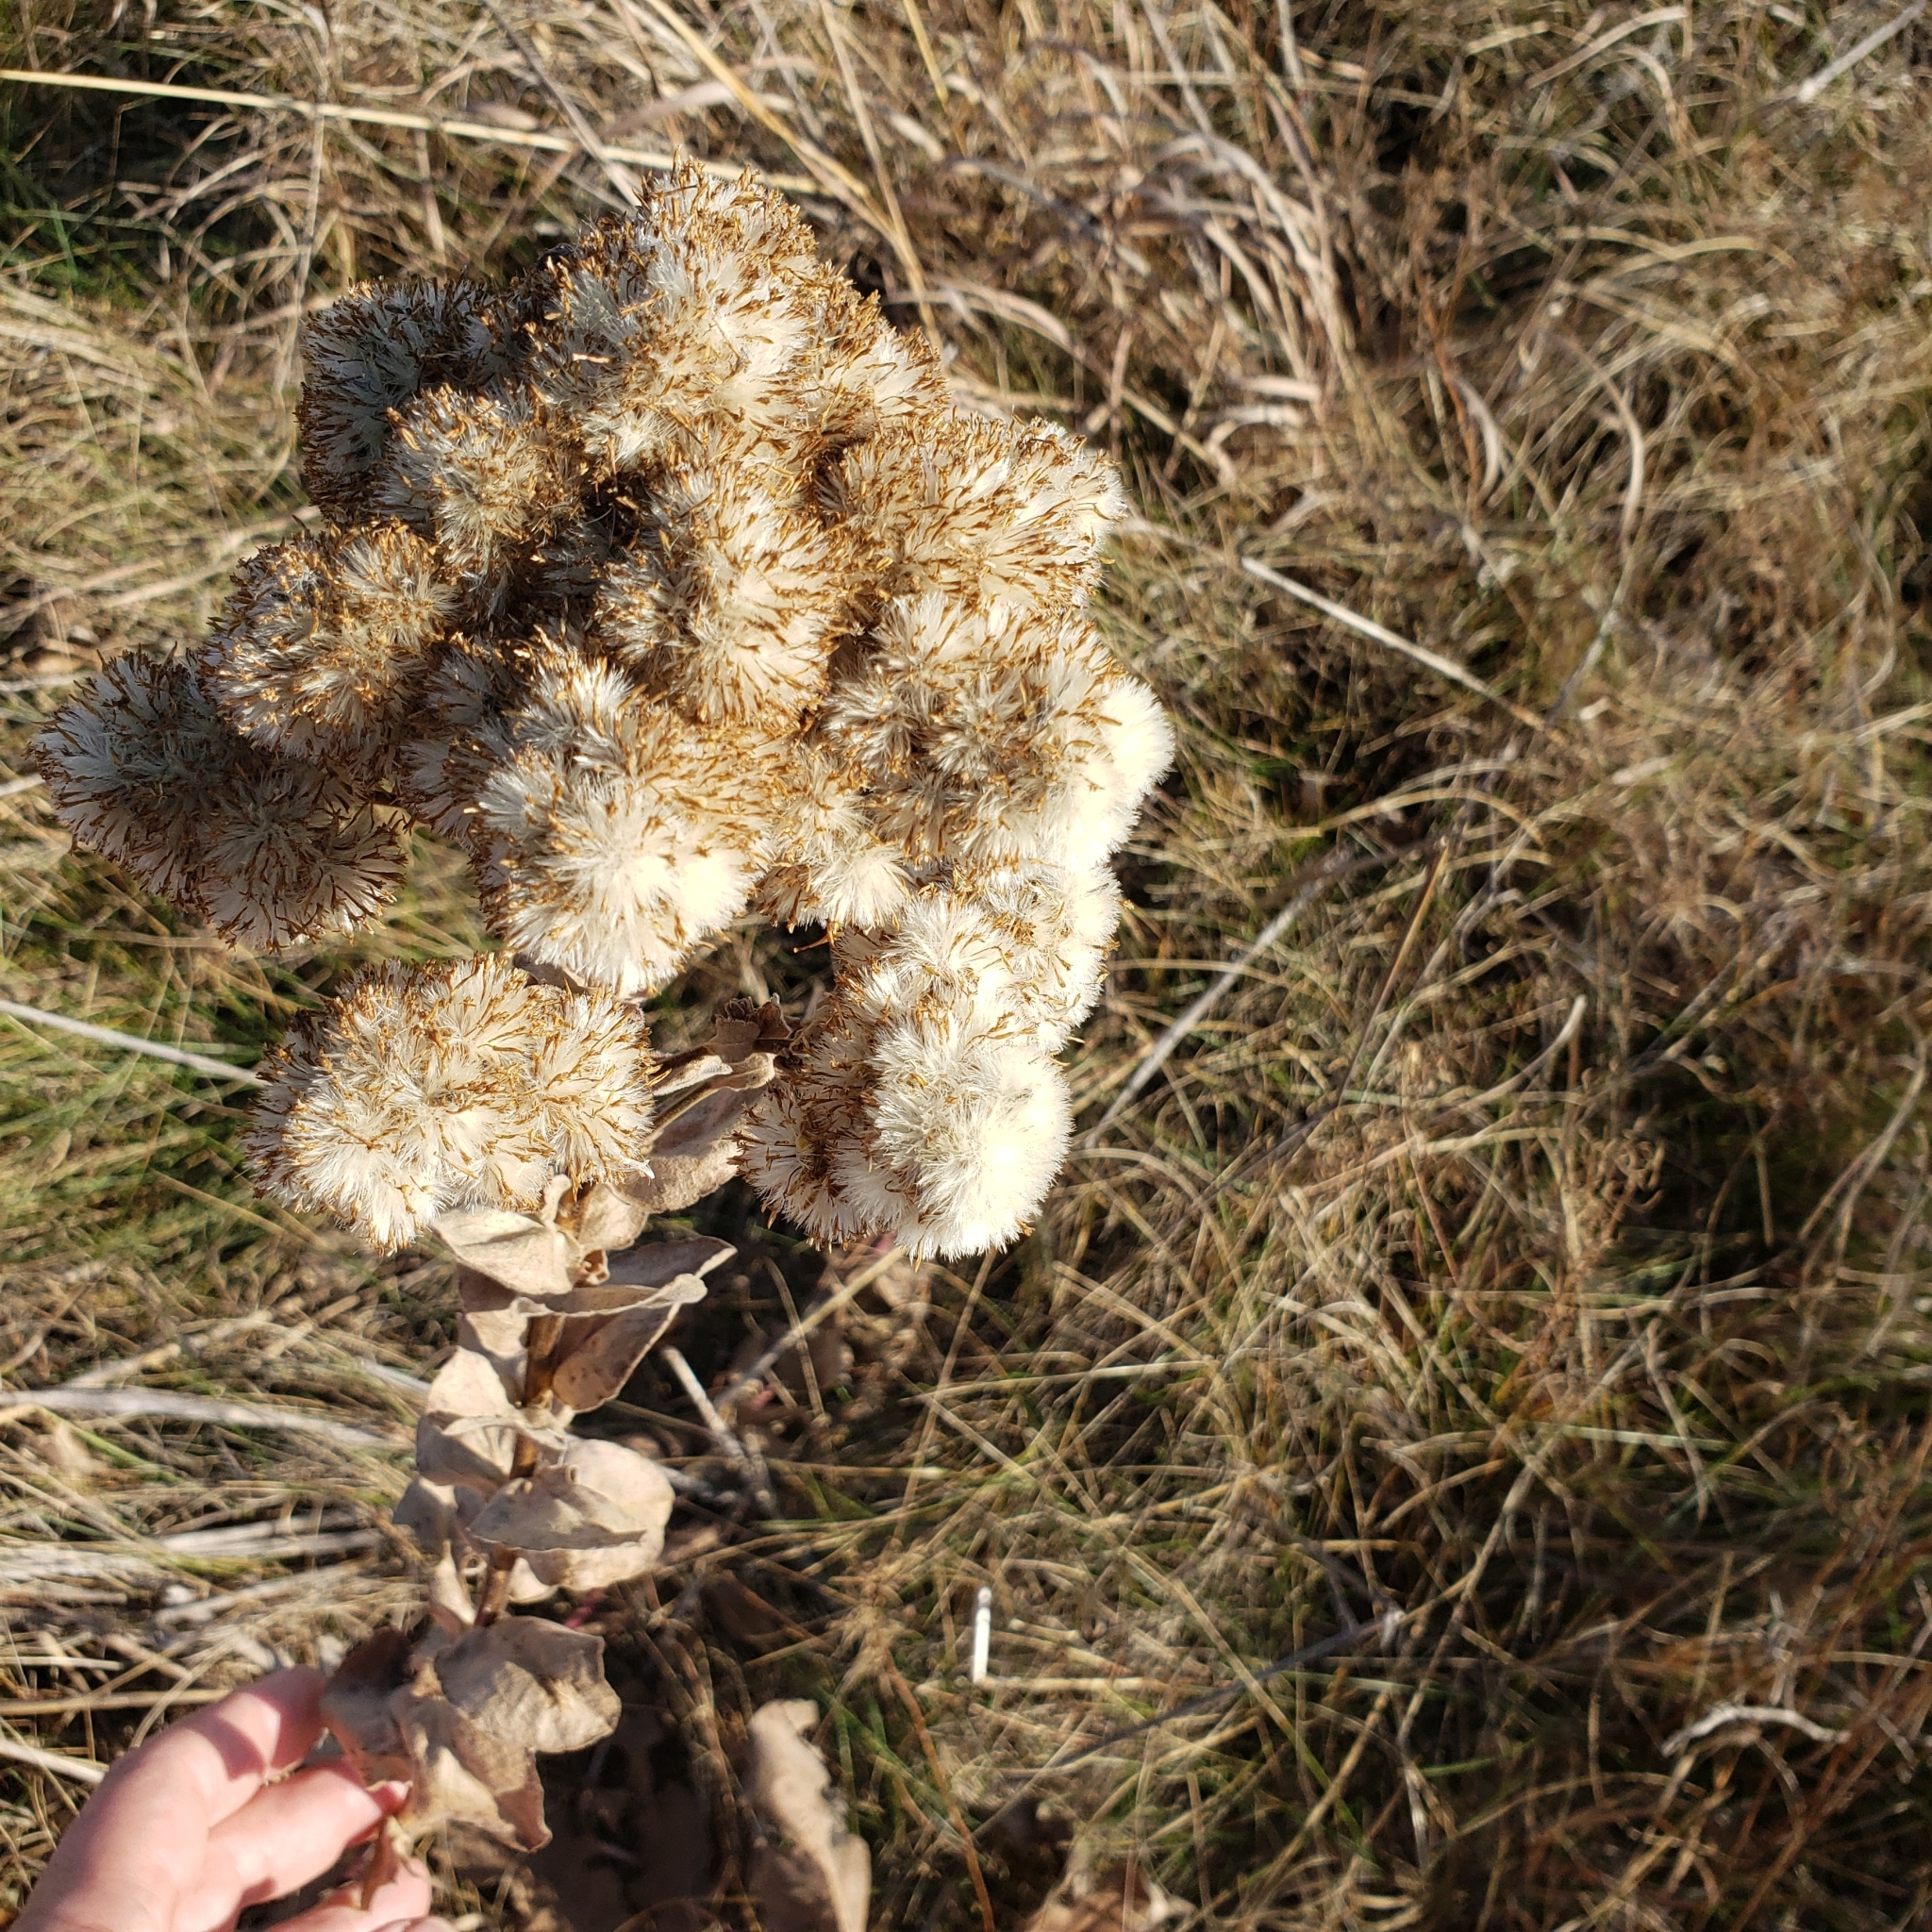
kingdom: Plantae
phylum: Tracheophyta
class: Magnoliopsida
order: Asterales
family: Asteraceae
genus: Solidago
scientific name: Solidago rigida
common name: Rigid goldenrod
